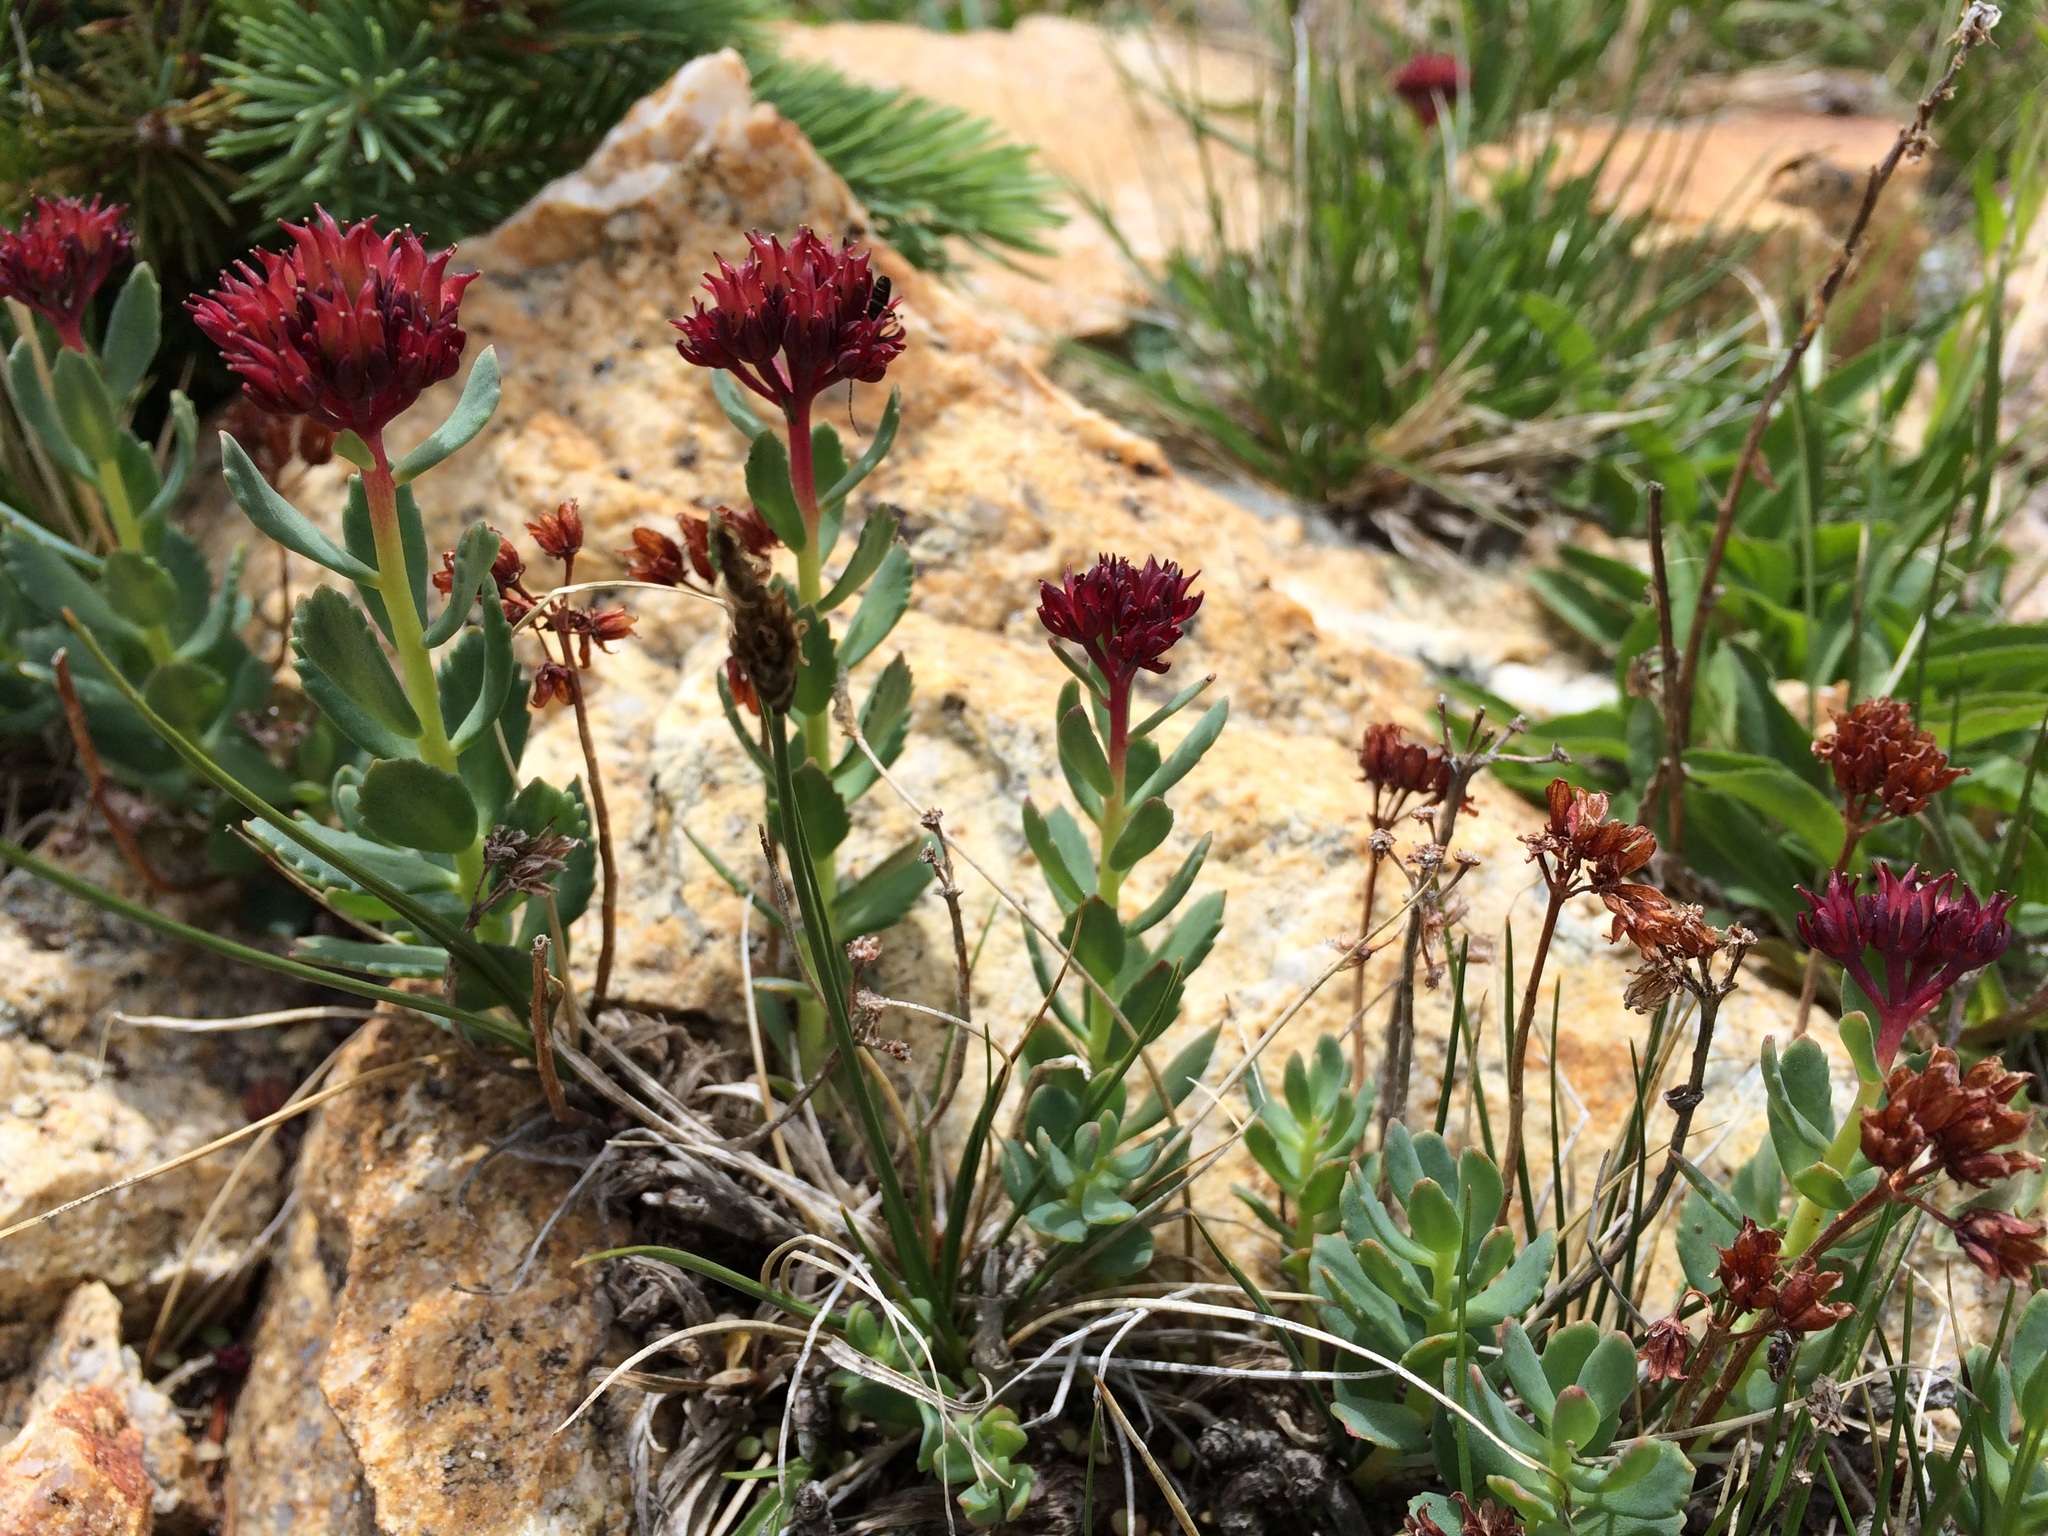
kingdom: Plantae
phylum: Tracheophyta
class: Magnoliopsida
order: Saxifragales
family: Crassulaceae
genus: Rhodiola
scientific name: Rhodiola integrifolia
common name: Western roseroot
